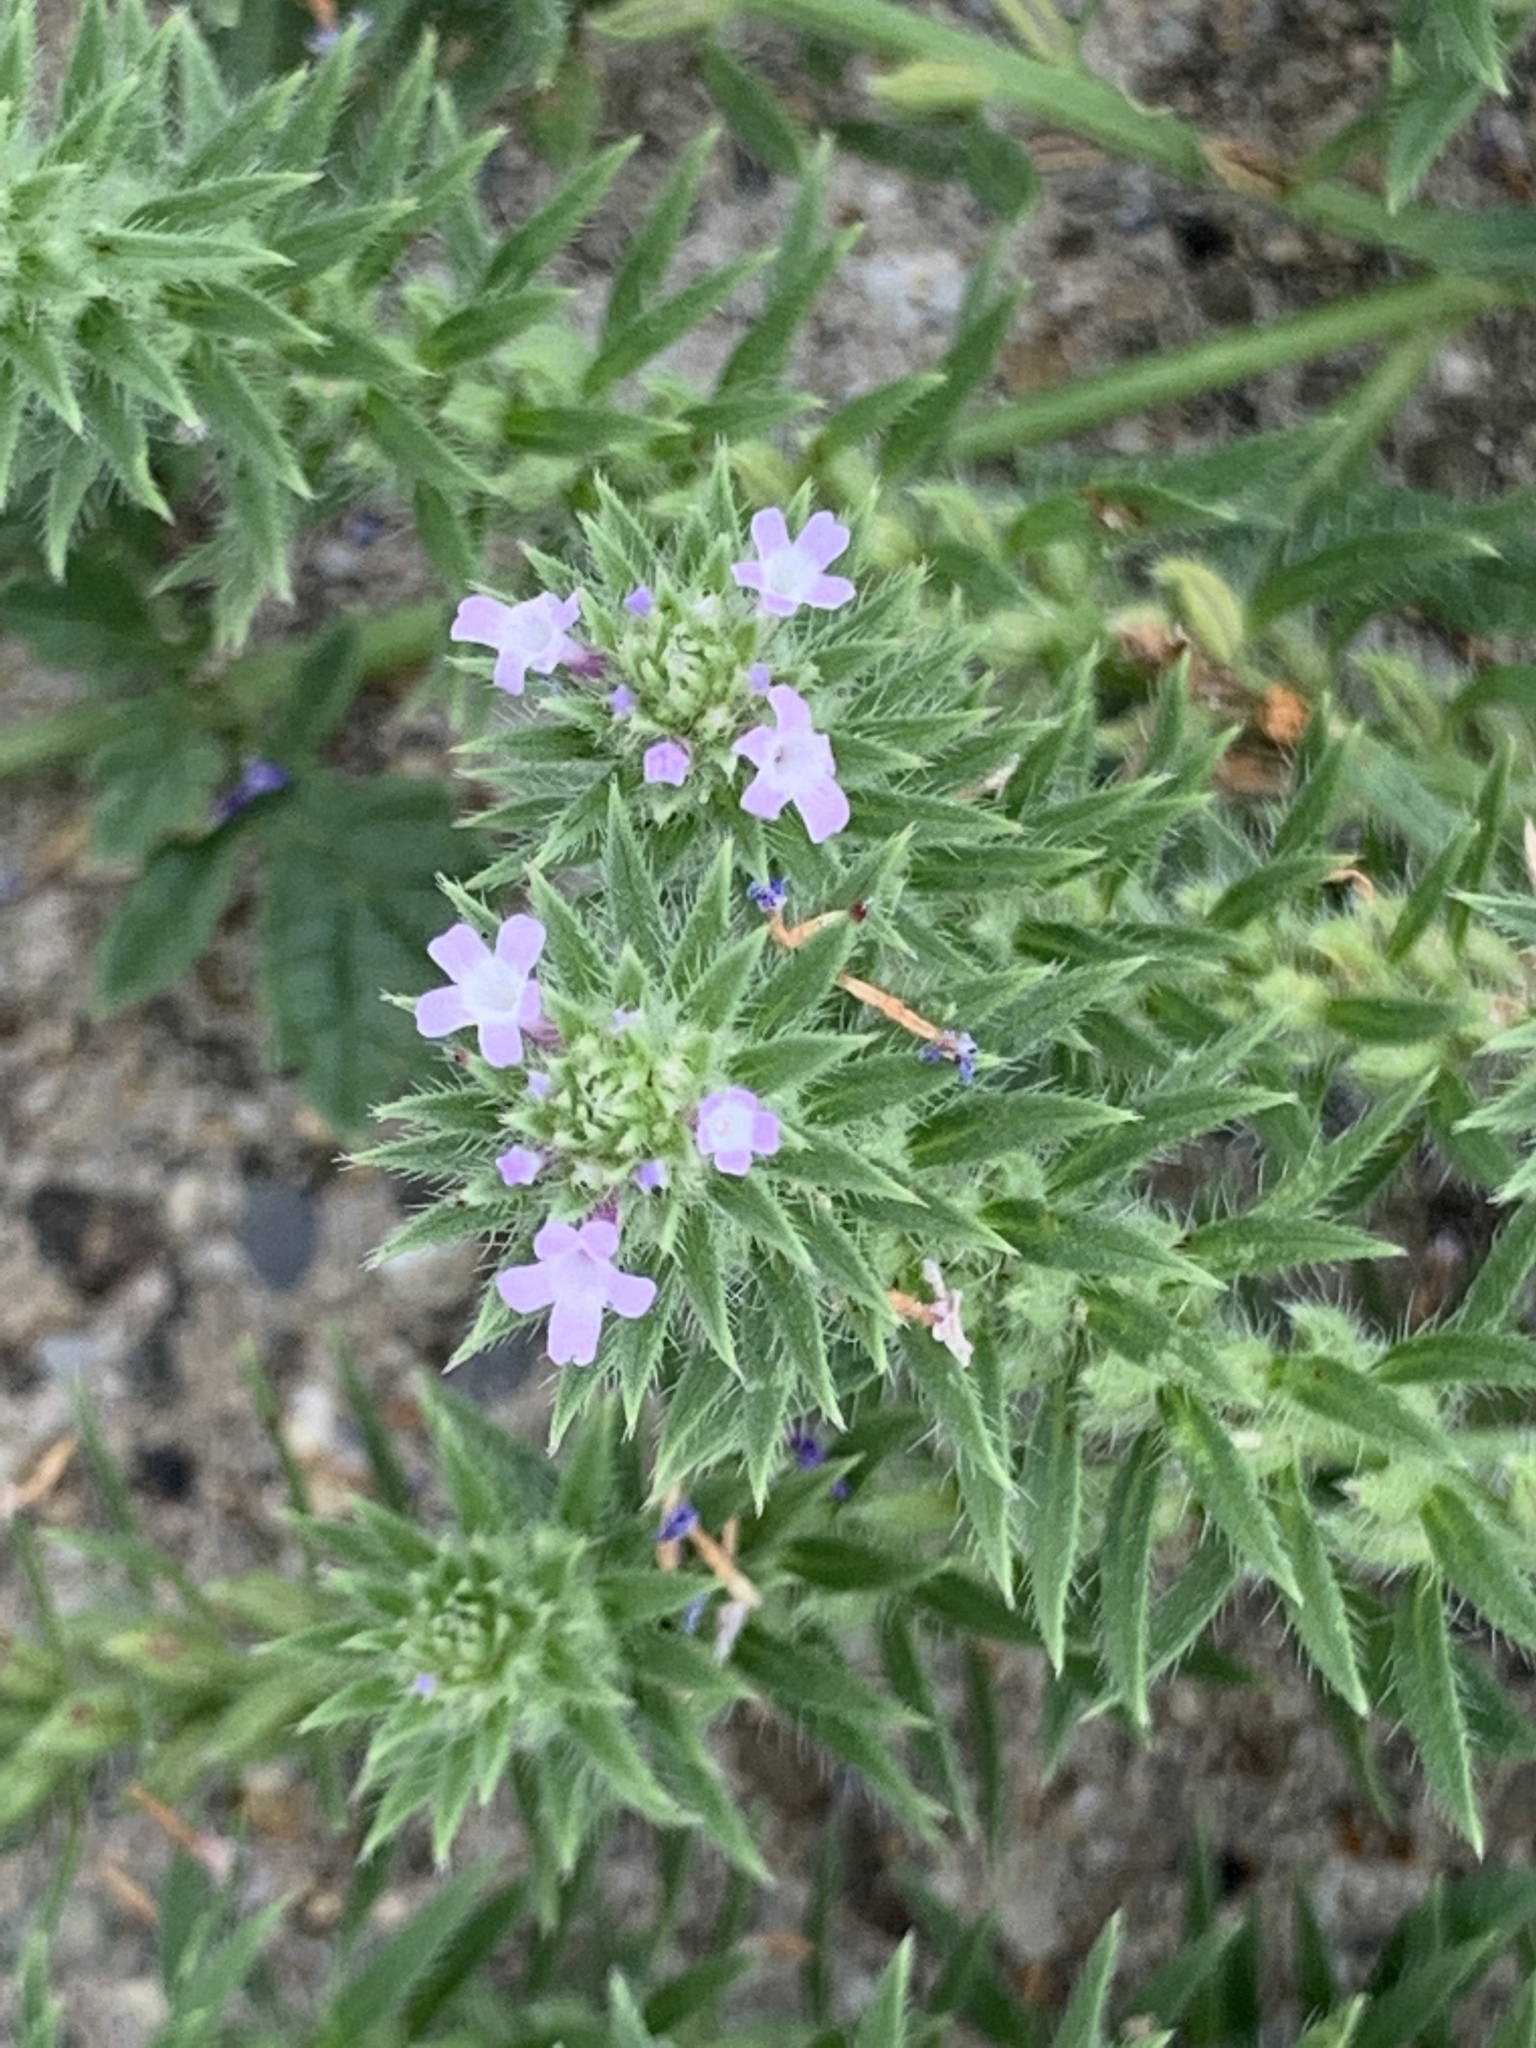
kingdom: Plantae
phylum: Tracheophyta
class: Magnoliopsida
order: Lamiales
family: Verbenaceae
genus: Verbena
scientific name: Verbena bracteata
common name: Bracted vervain
